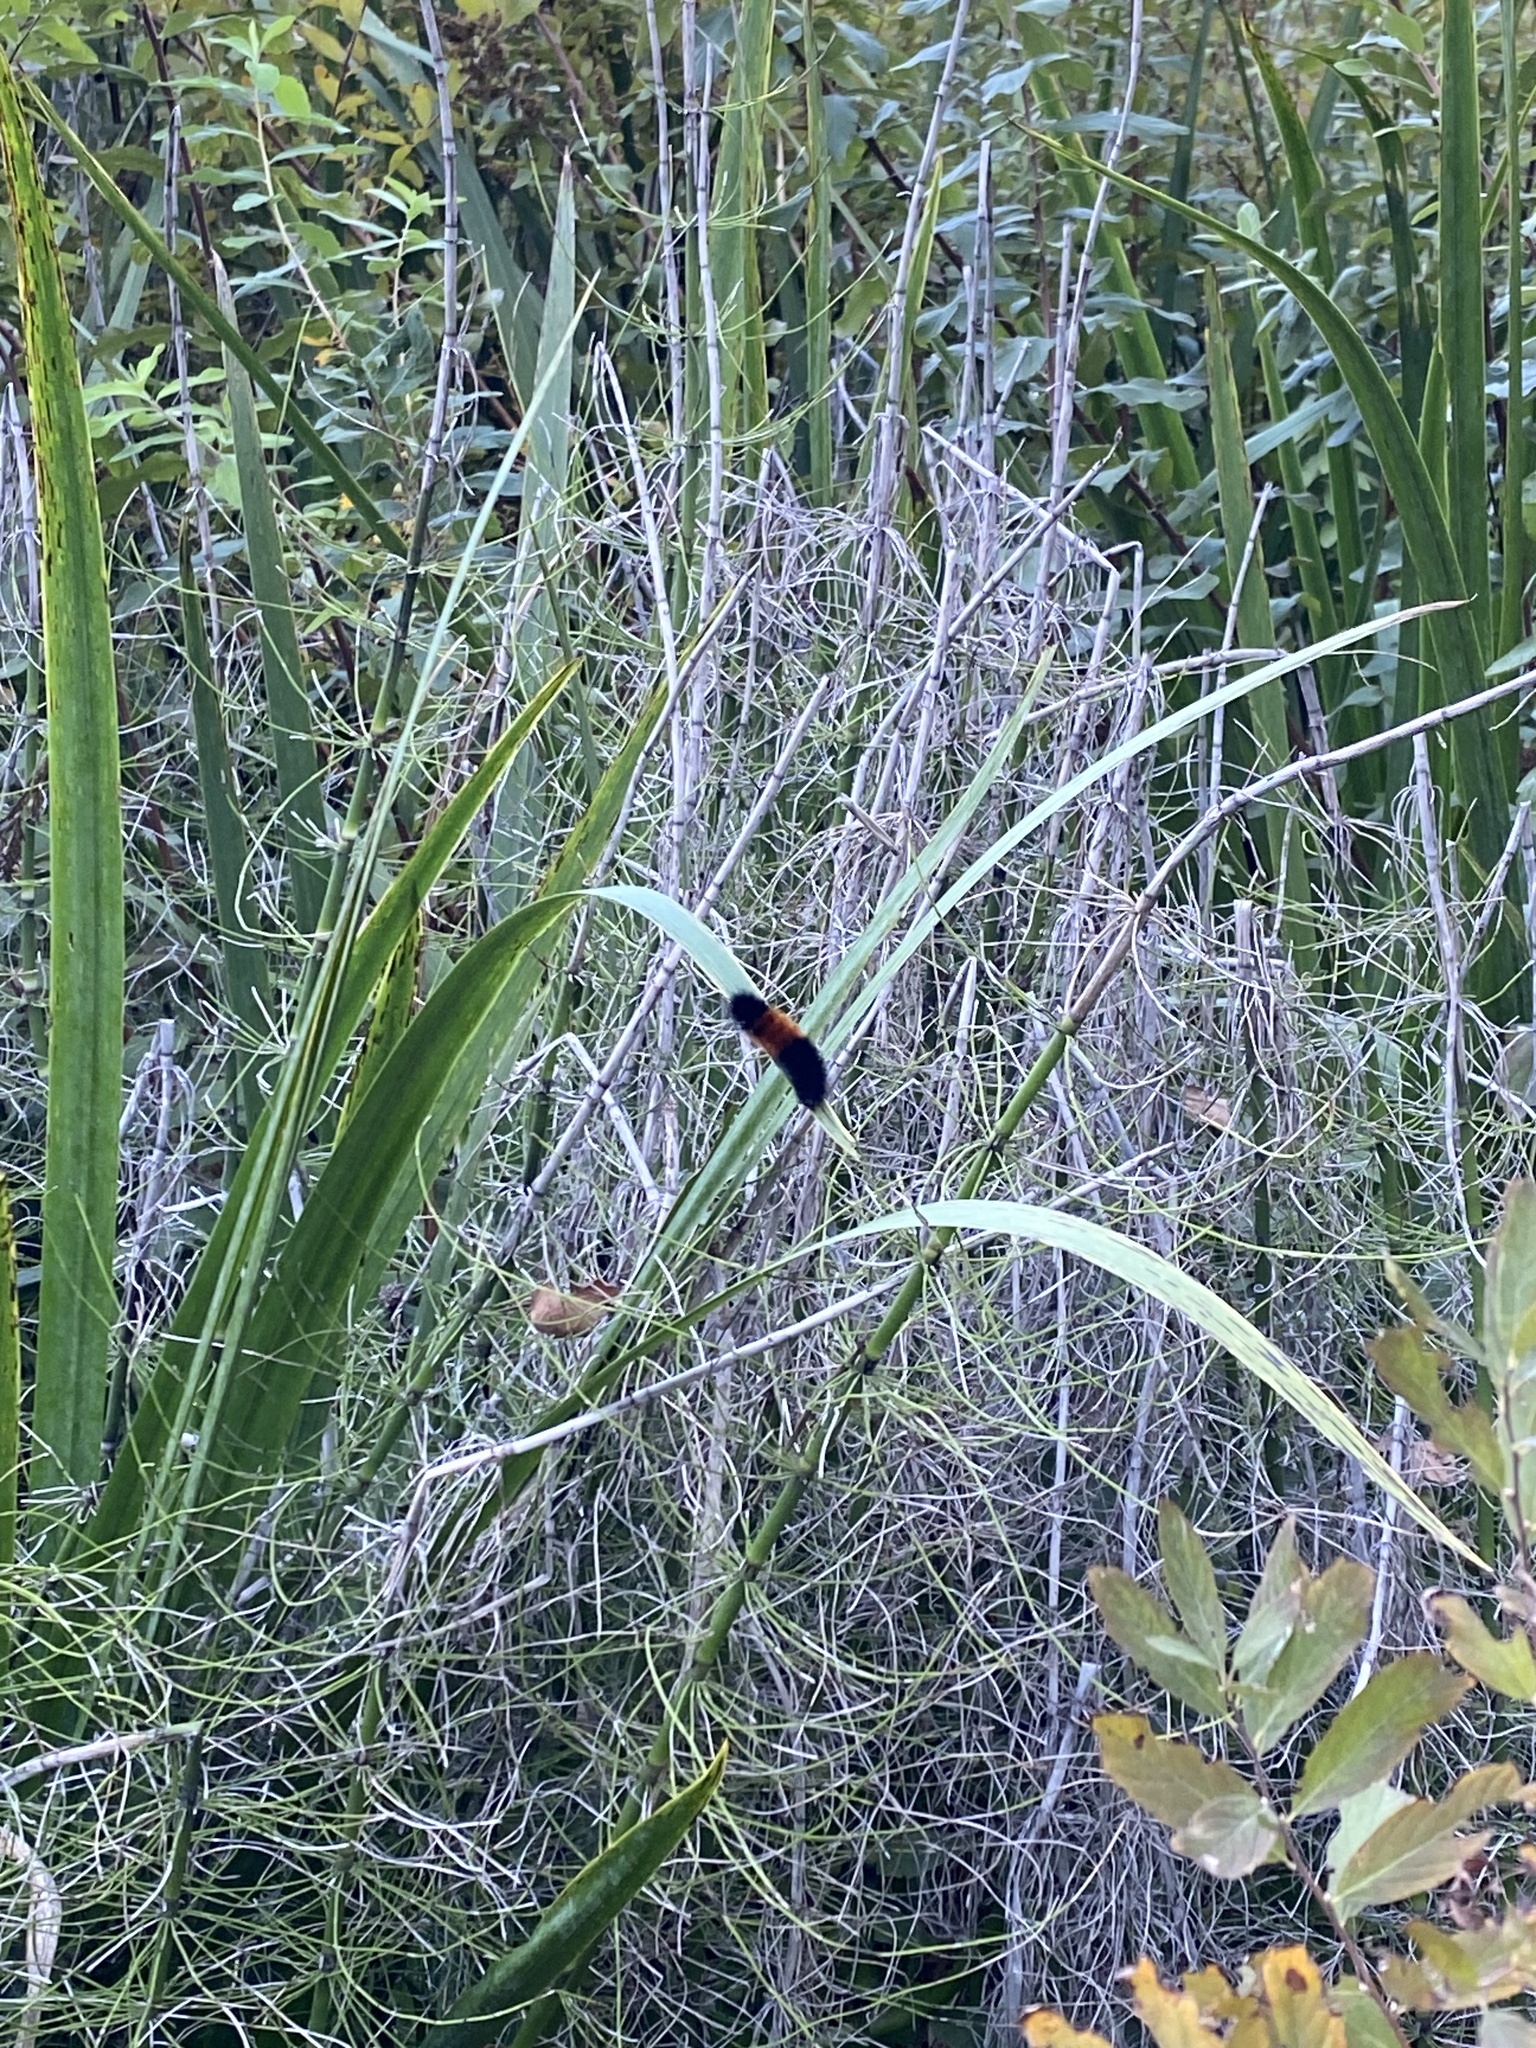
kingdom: Animalia
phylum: Arthropoda
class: Insecta
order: Lepidoptera
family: Erebidae
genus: Pyrrharctia
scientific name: Pyrrharctia isabella
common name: Isabella tiger moth
